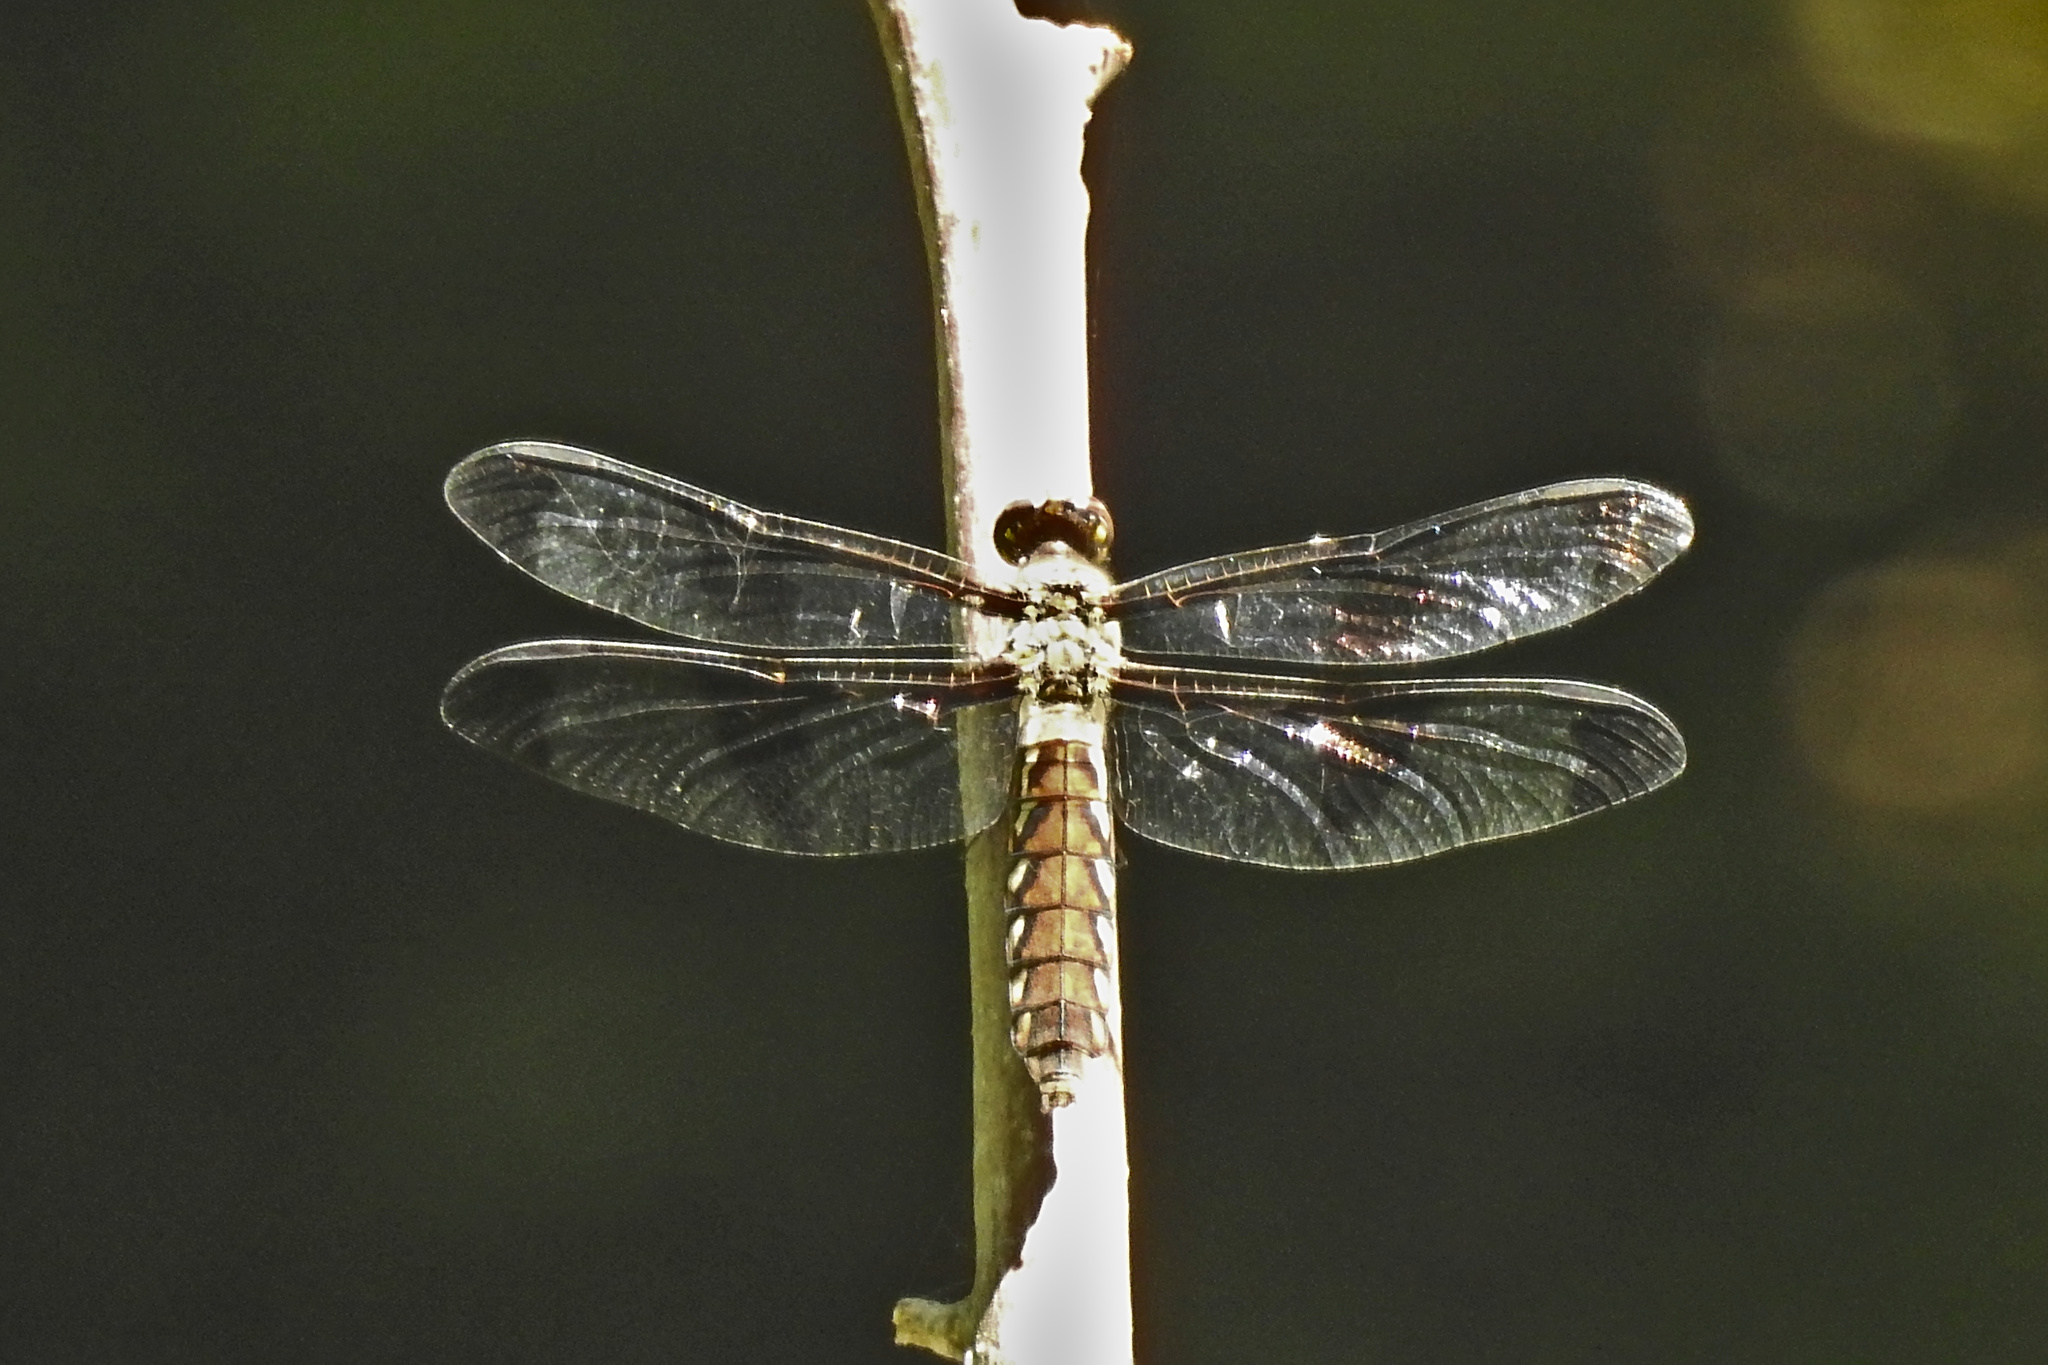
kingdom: Animalia
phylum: Arthropoda
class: Insecta
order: Odonata
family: Libellulidae
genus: Plathemis
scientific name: Plathemis lydia
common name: Common whitetail
